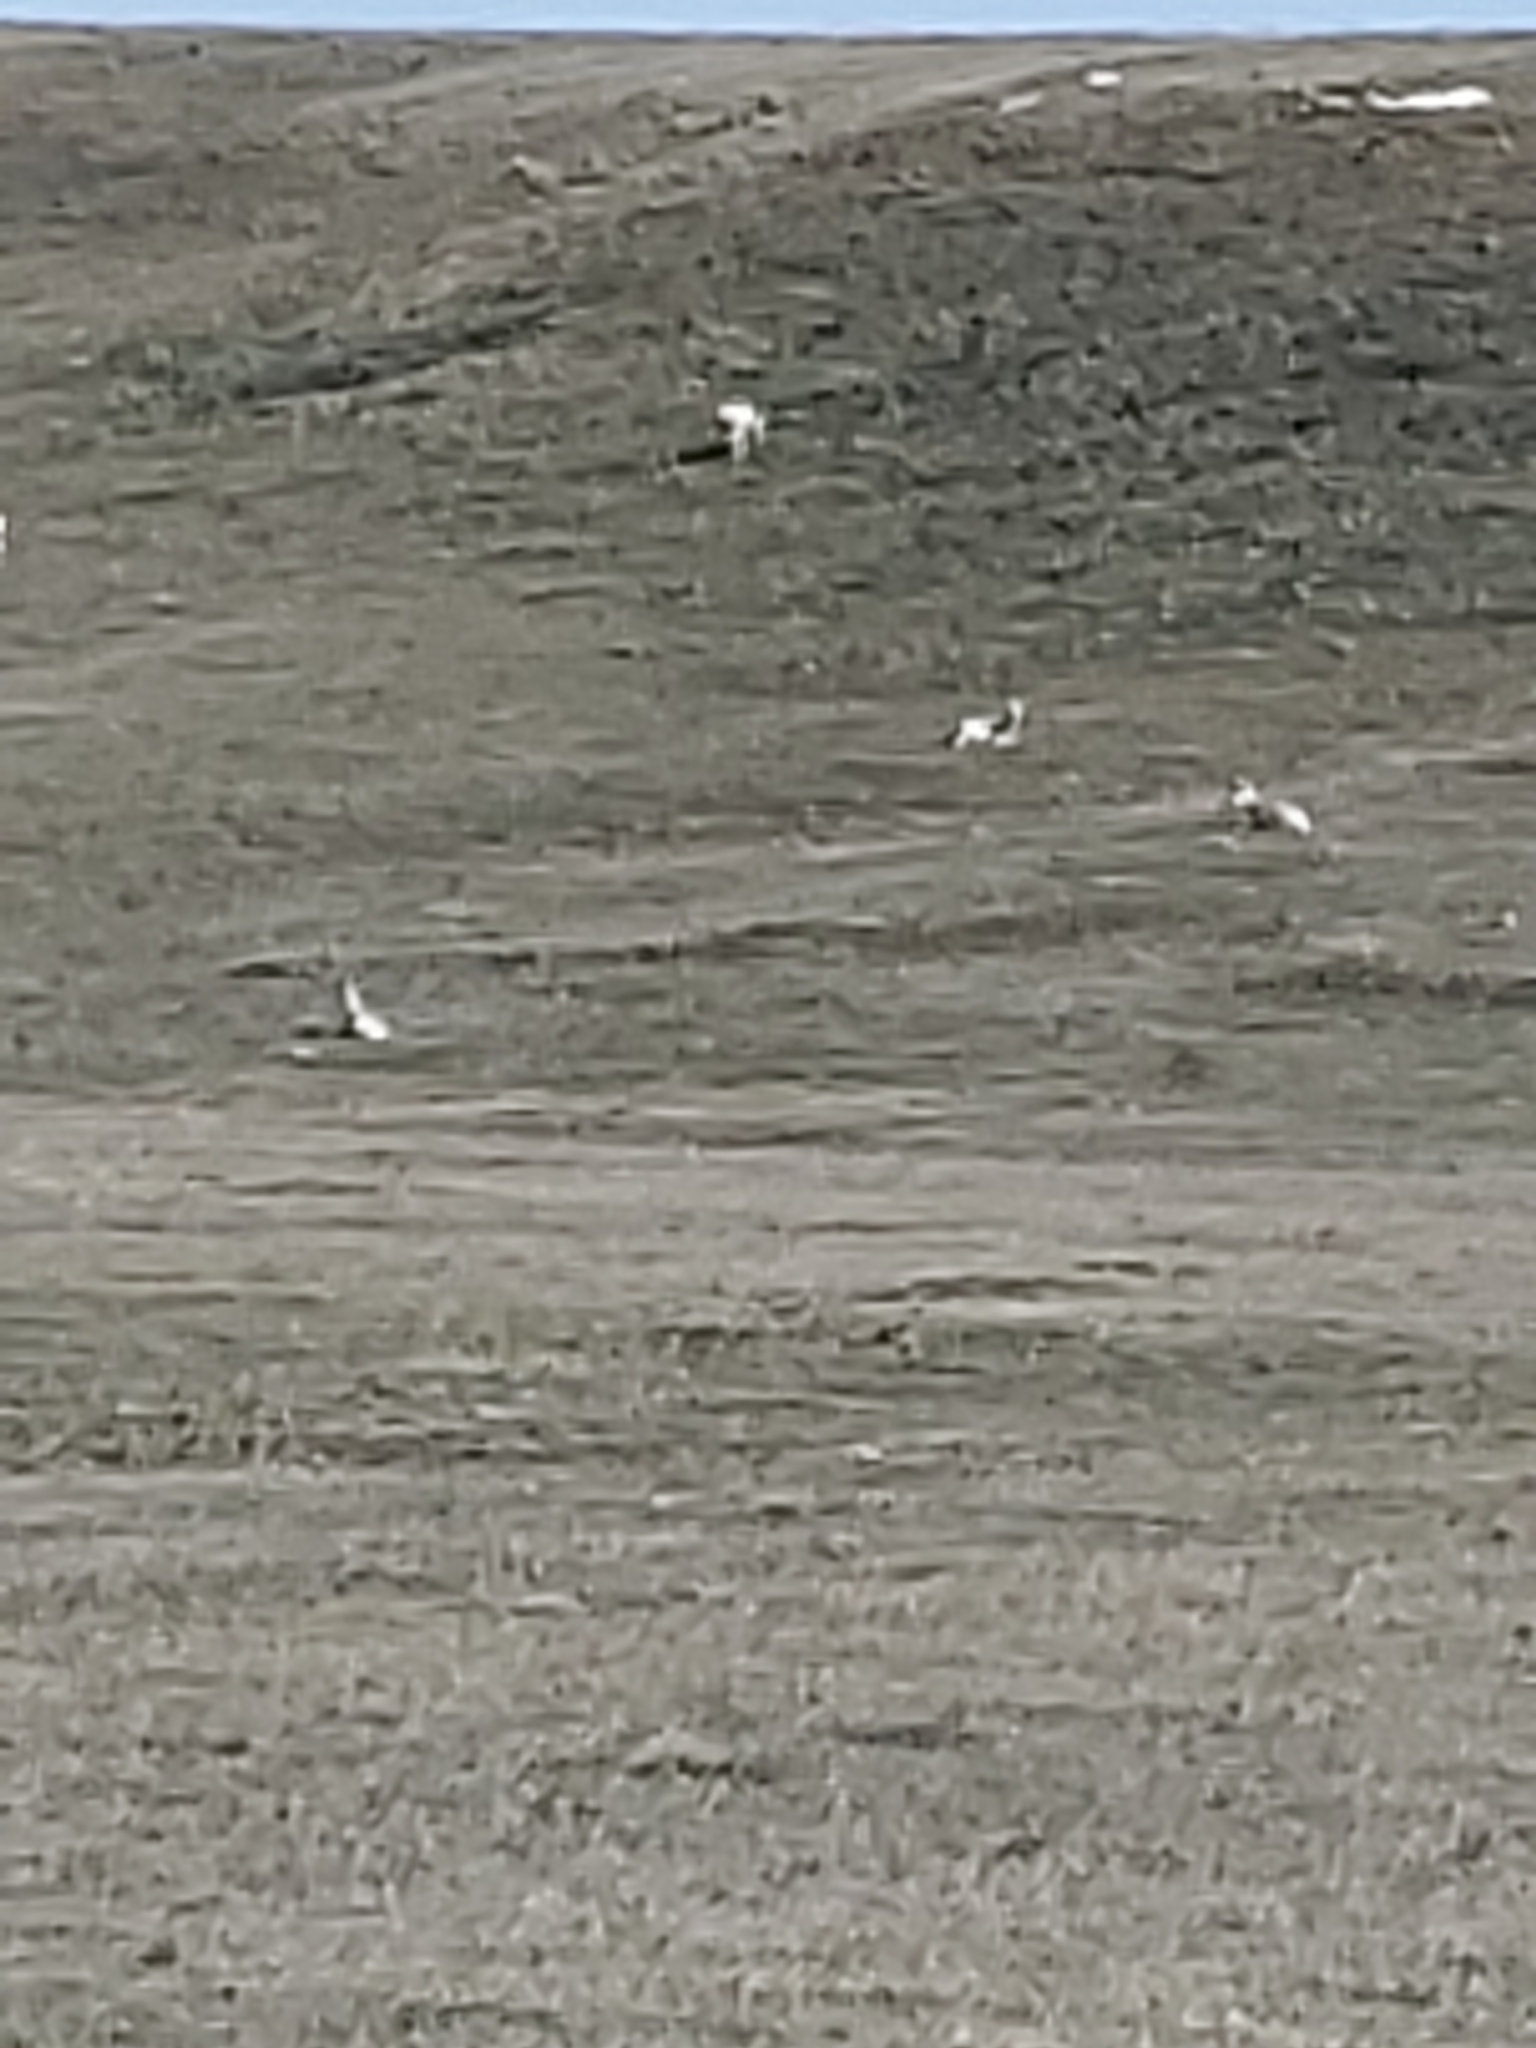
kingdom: Animalia
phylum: Chordata
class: Mammalia
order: Artiodactyla
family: Antilocapridae
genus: Antilocapra
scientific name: Antilocapra americana
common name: Pronghorn
